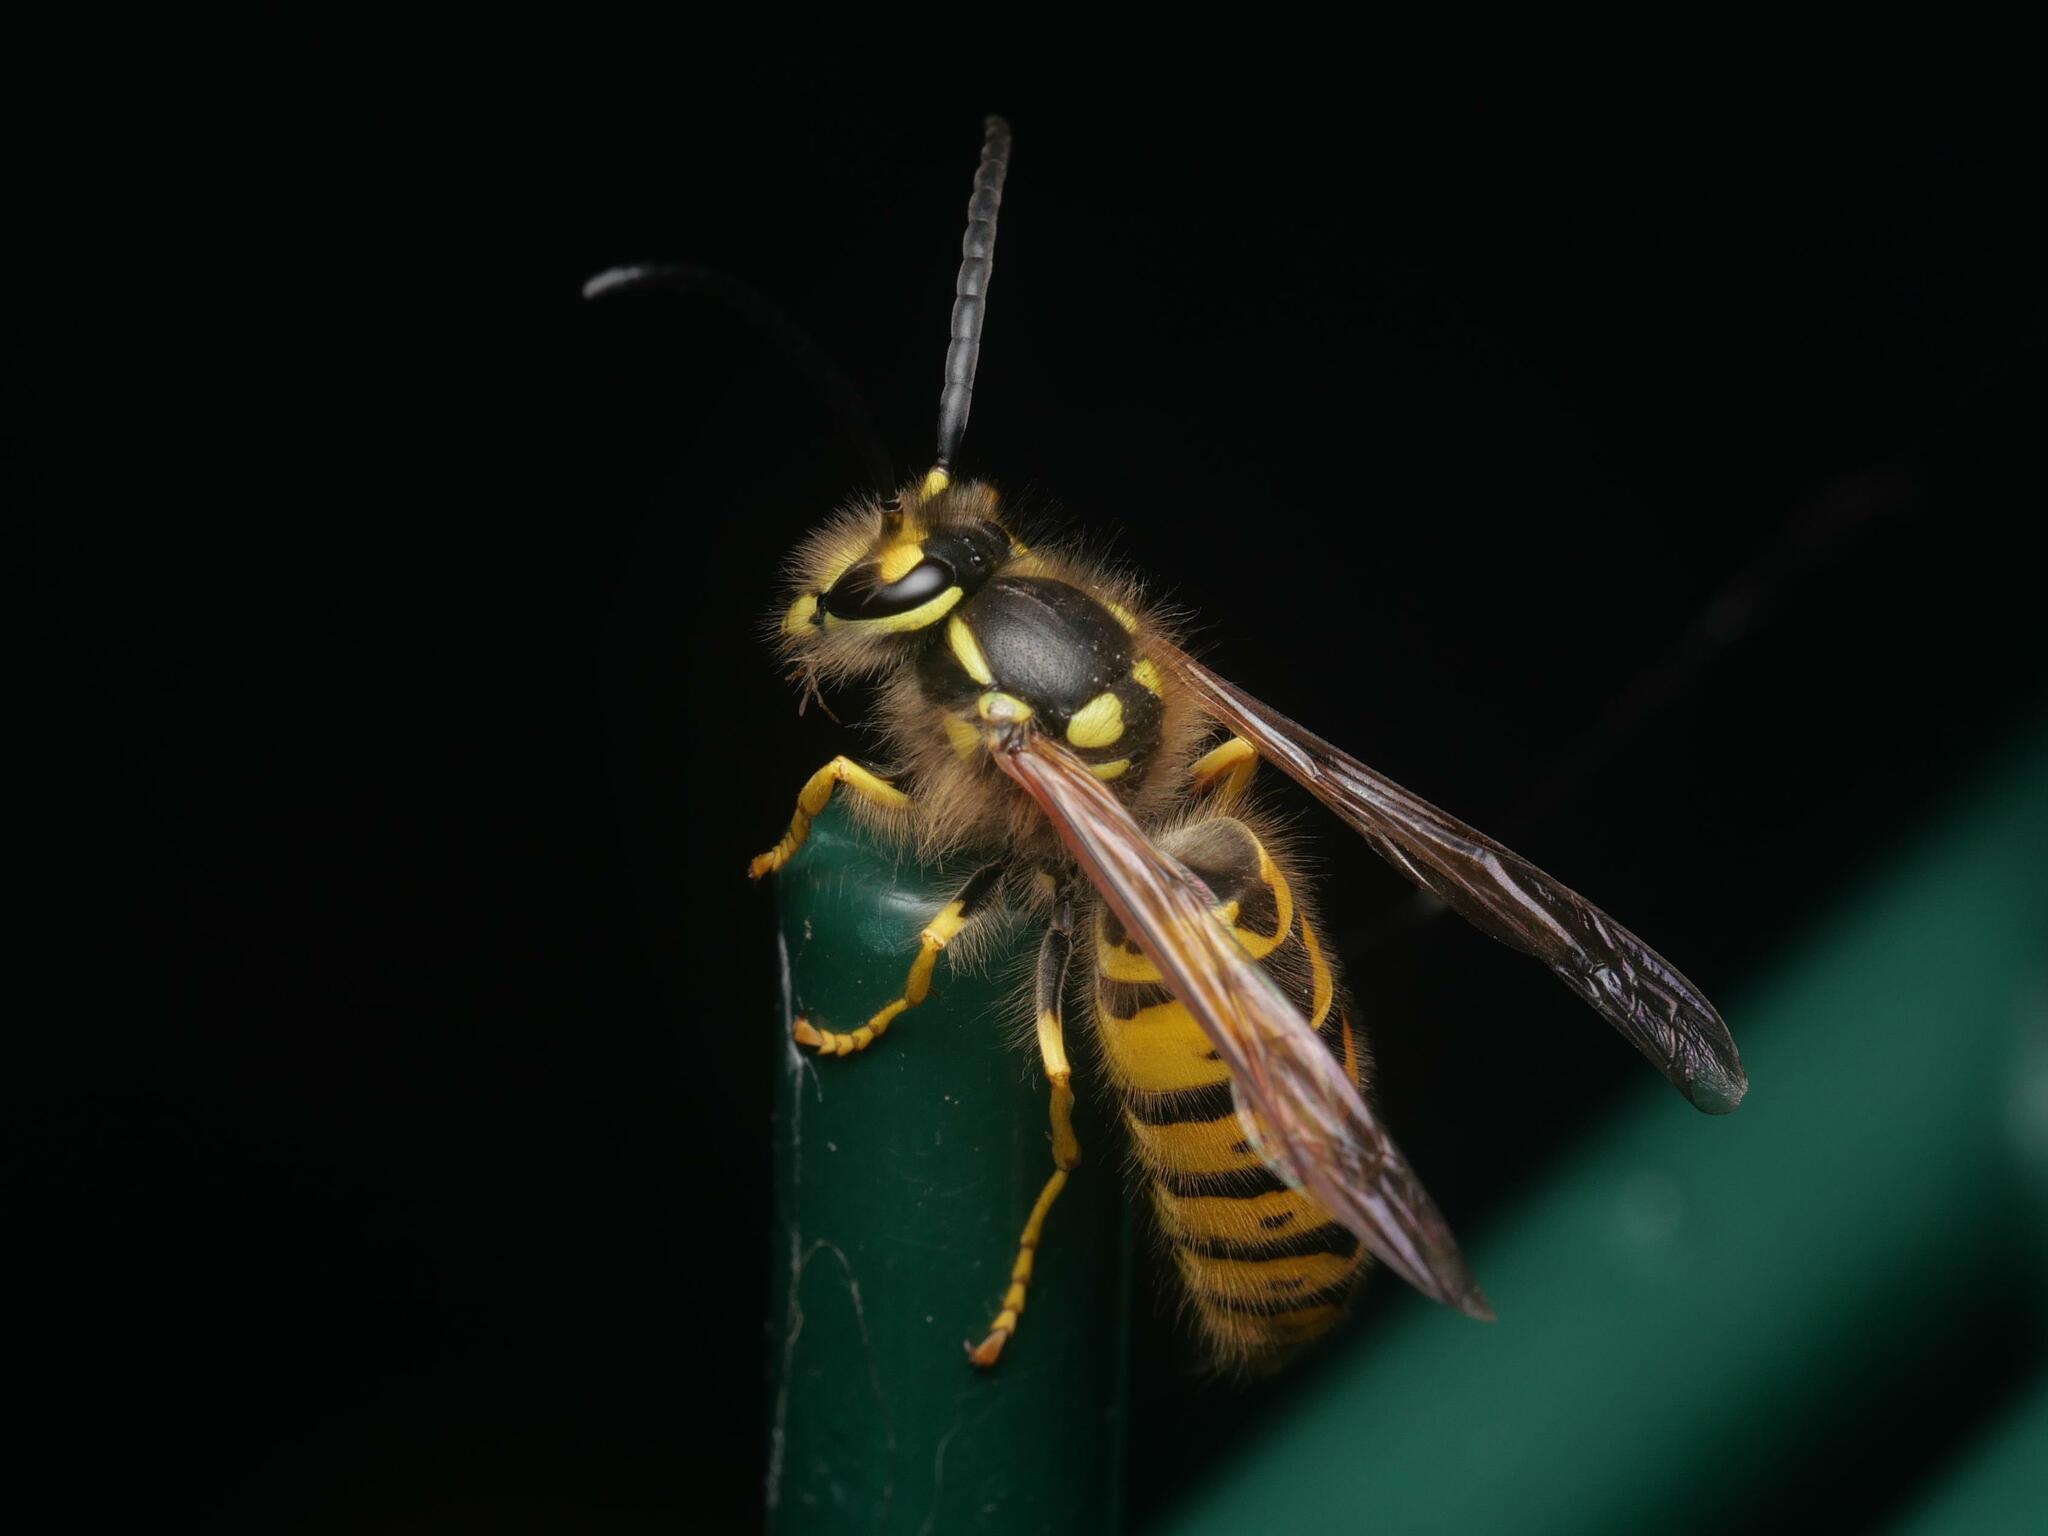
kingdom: Animalia
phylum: Arthropoda
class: Insecta
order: Hymenoptera
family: Vespidae
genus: Vespula
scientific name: Vespula germanica
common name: German wasp
